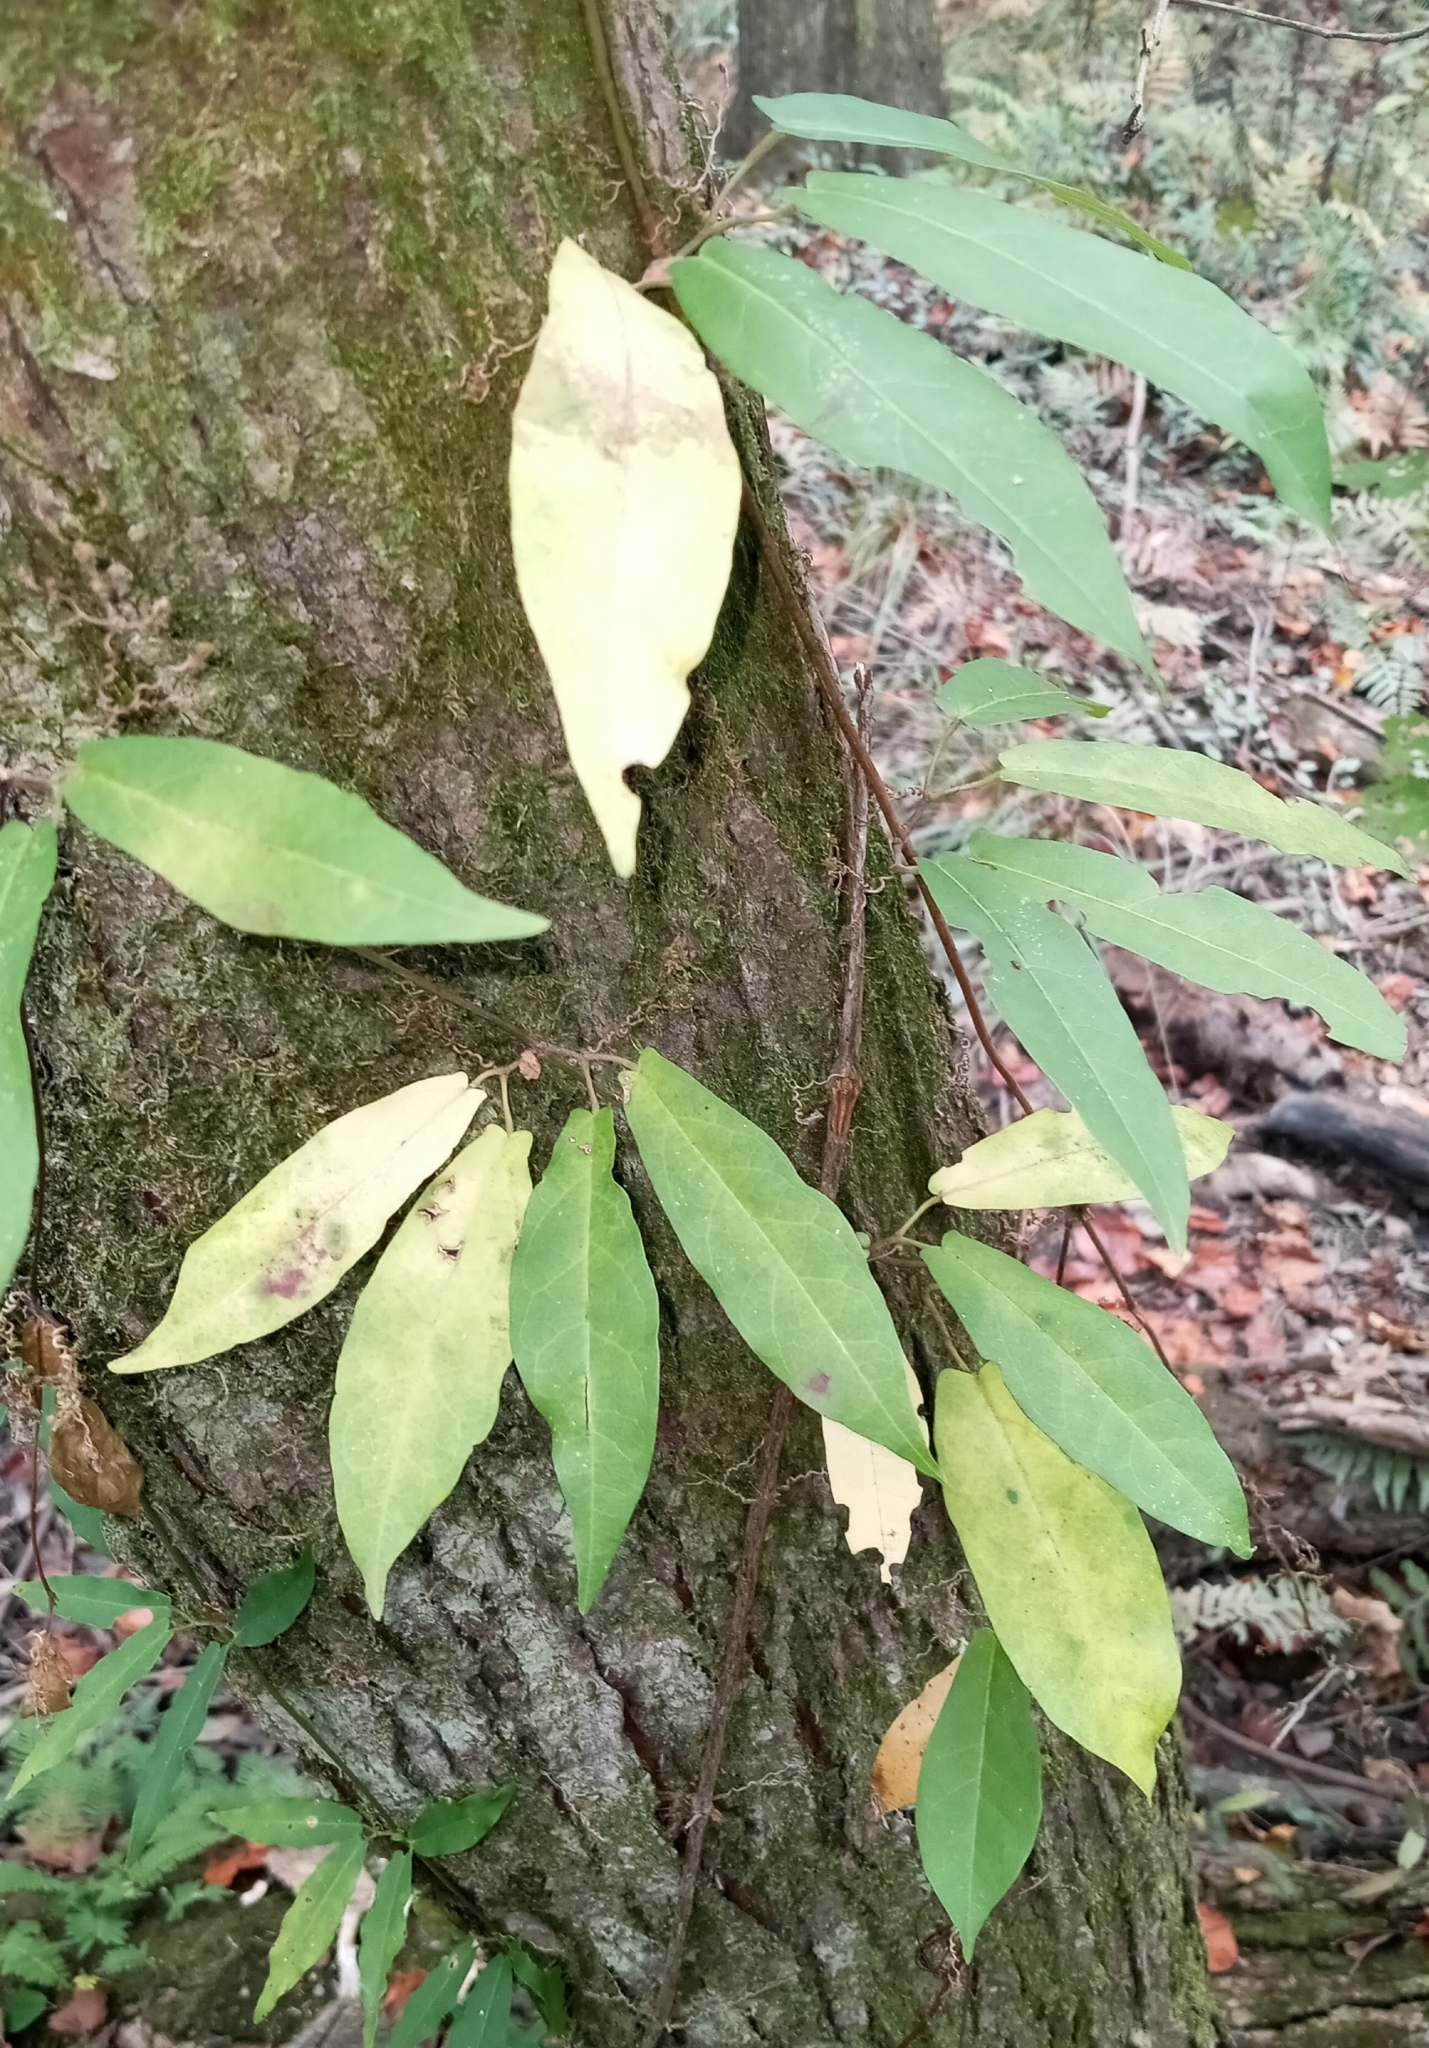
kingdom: Plantae
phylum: Tracheophyta
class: Magnoliopsida
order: Lamiales
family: Bignoniaceae
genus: Bignonia
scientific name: Bignonia capreolata
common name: Crossvine
